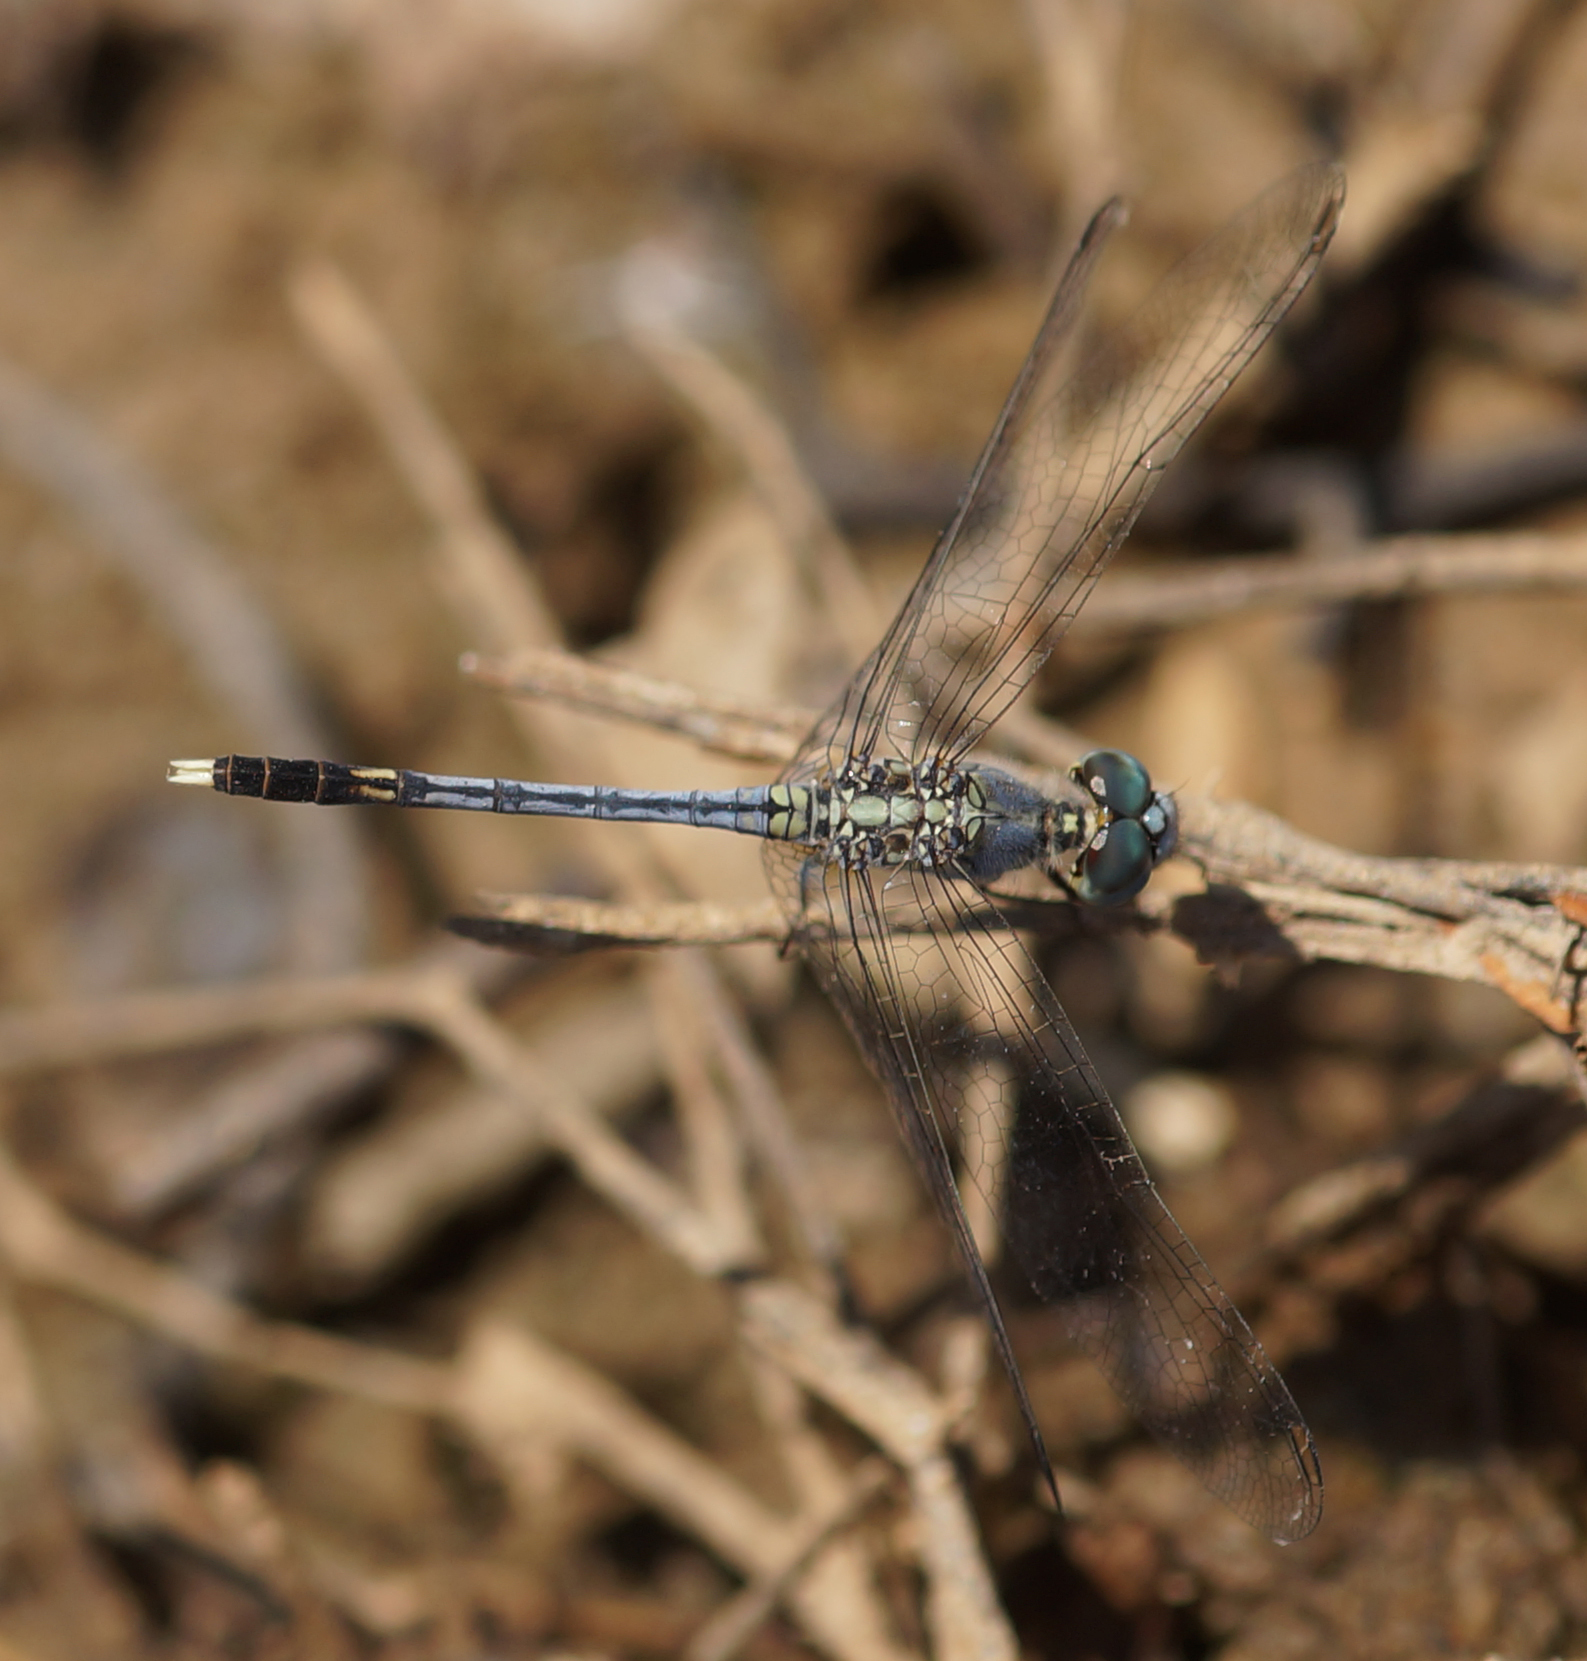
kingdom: Animalia
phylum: Arthropoda
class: Insecta
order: Odonata
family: Libellulidae
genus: Diplacodes
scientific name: Diplacodes trivialis
